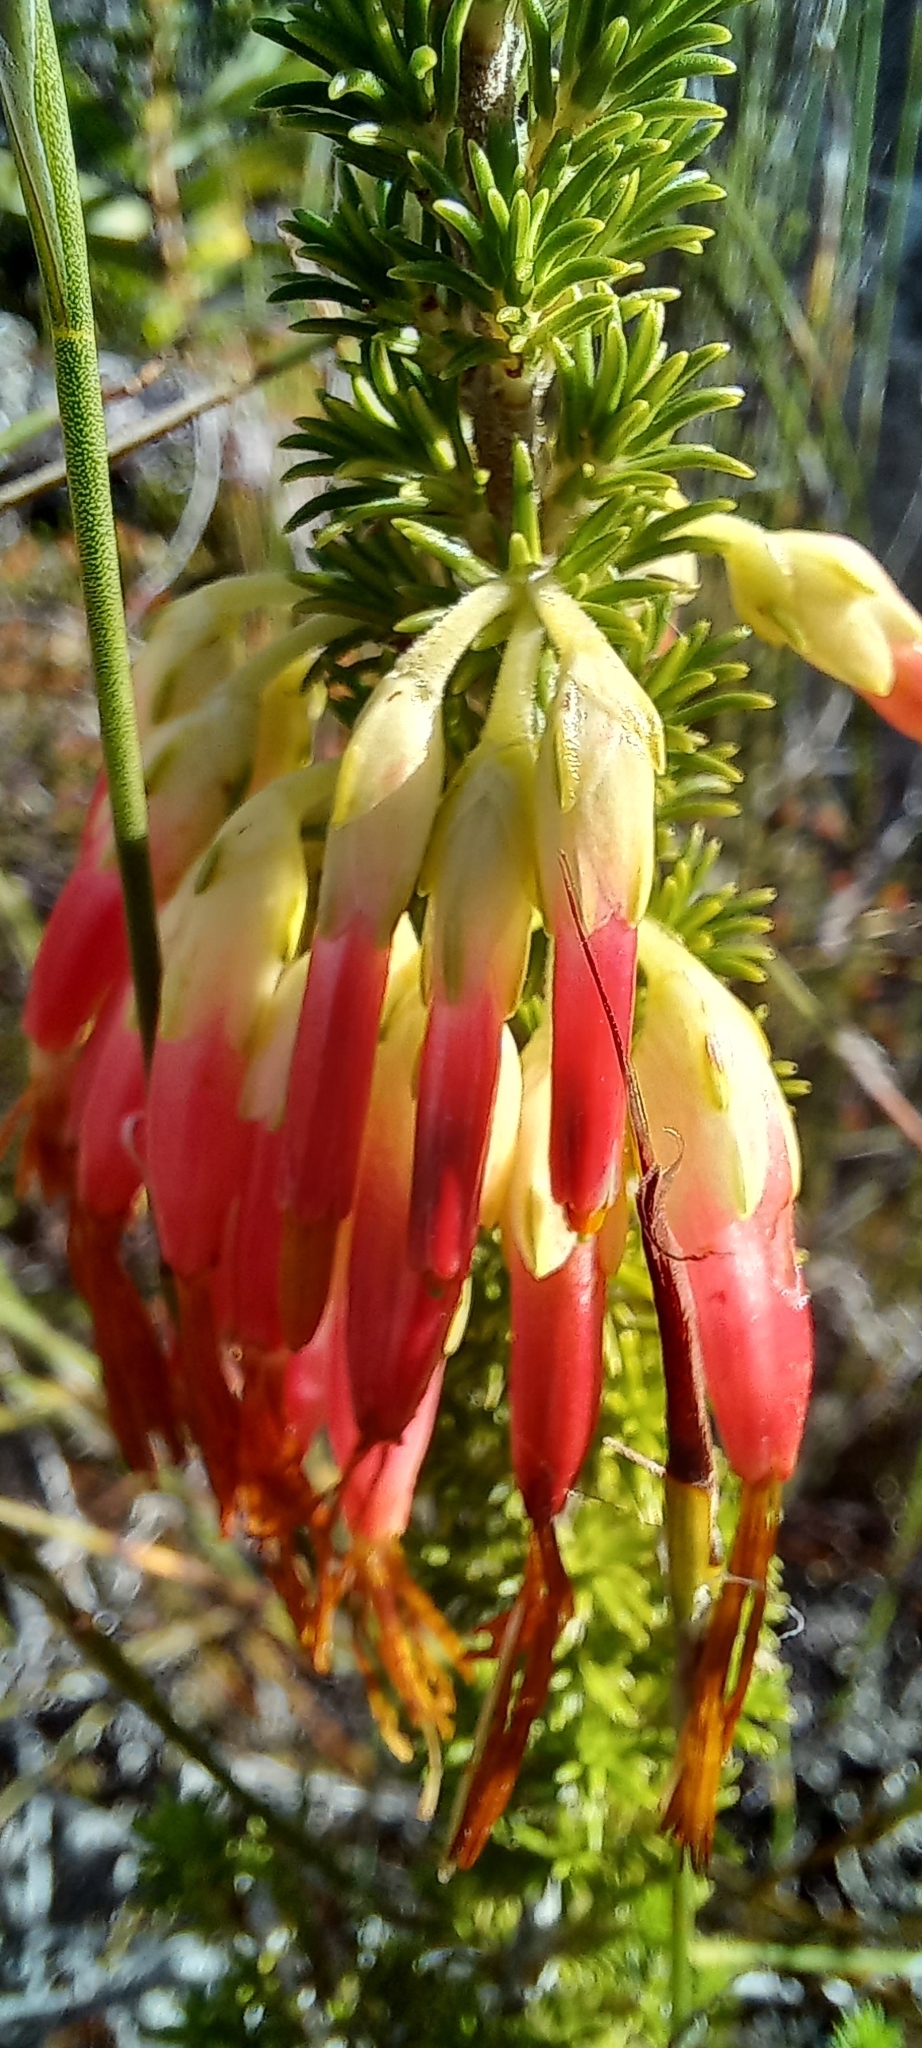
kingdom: Plantae
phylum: Tracheophyta
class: Magnoliopsida
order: Ericales
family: Ericaceae
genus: Erica
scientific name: Erica coccinea
